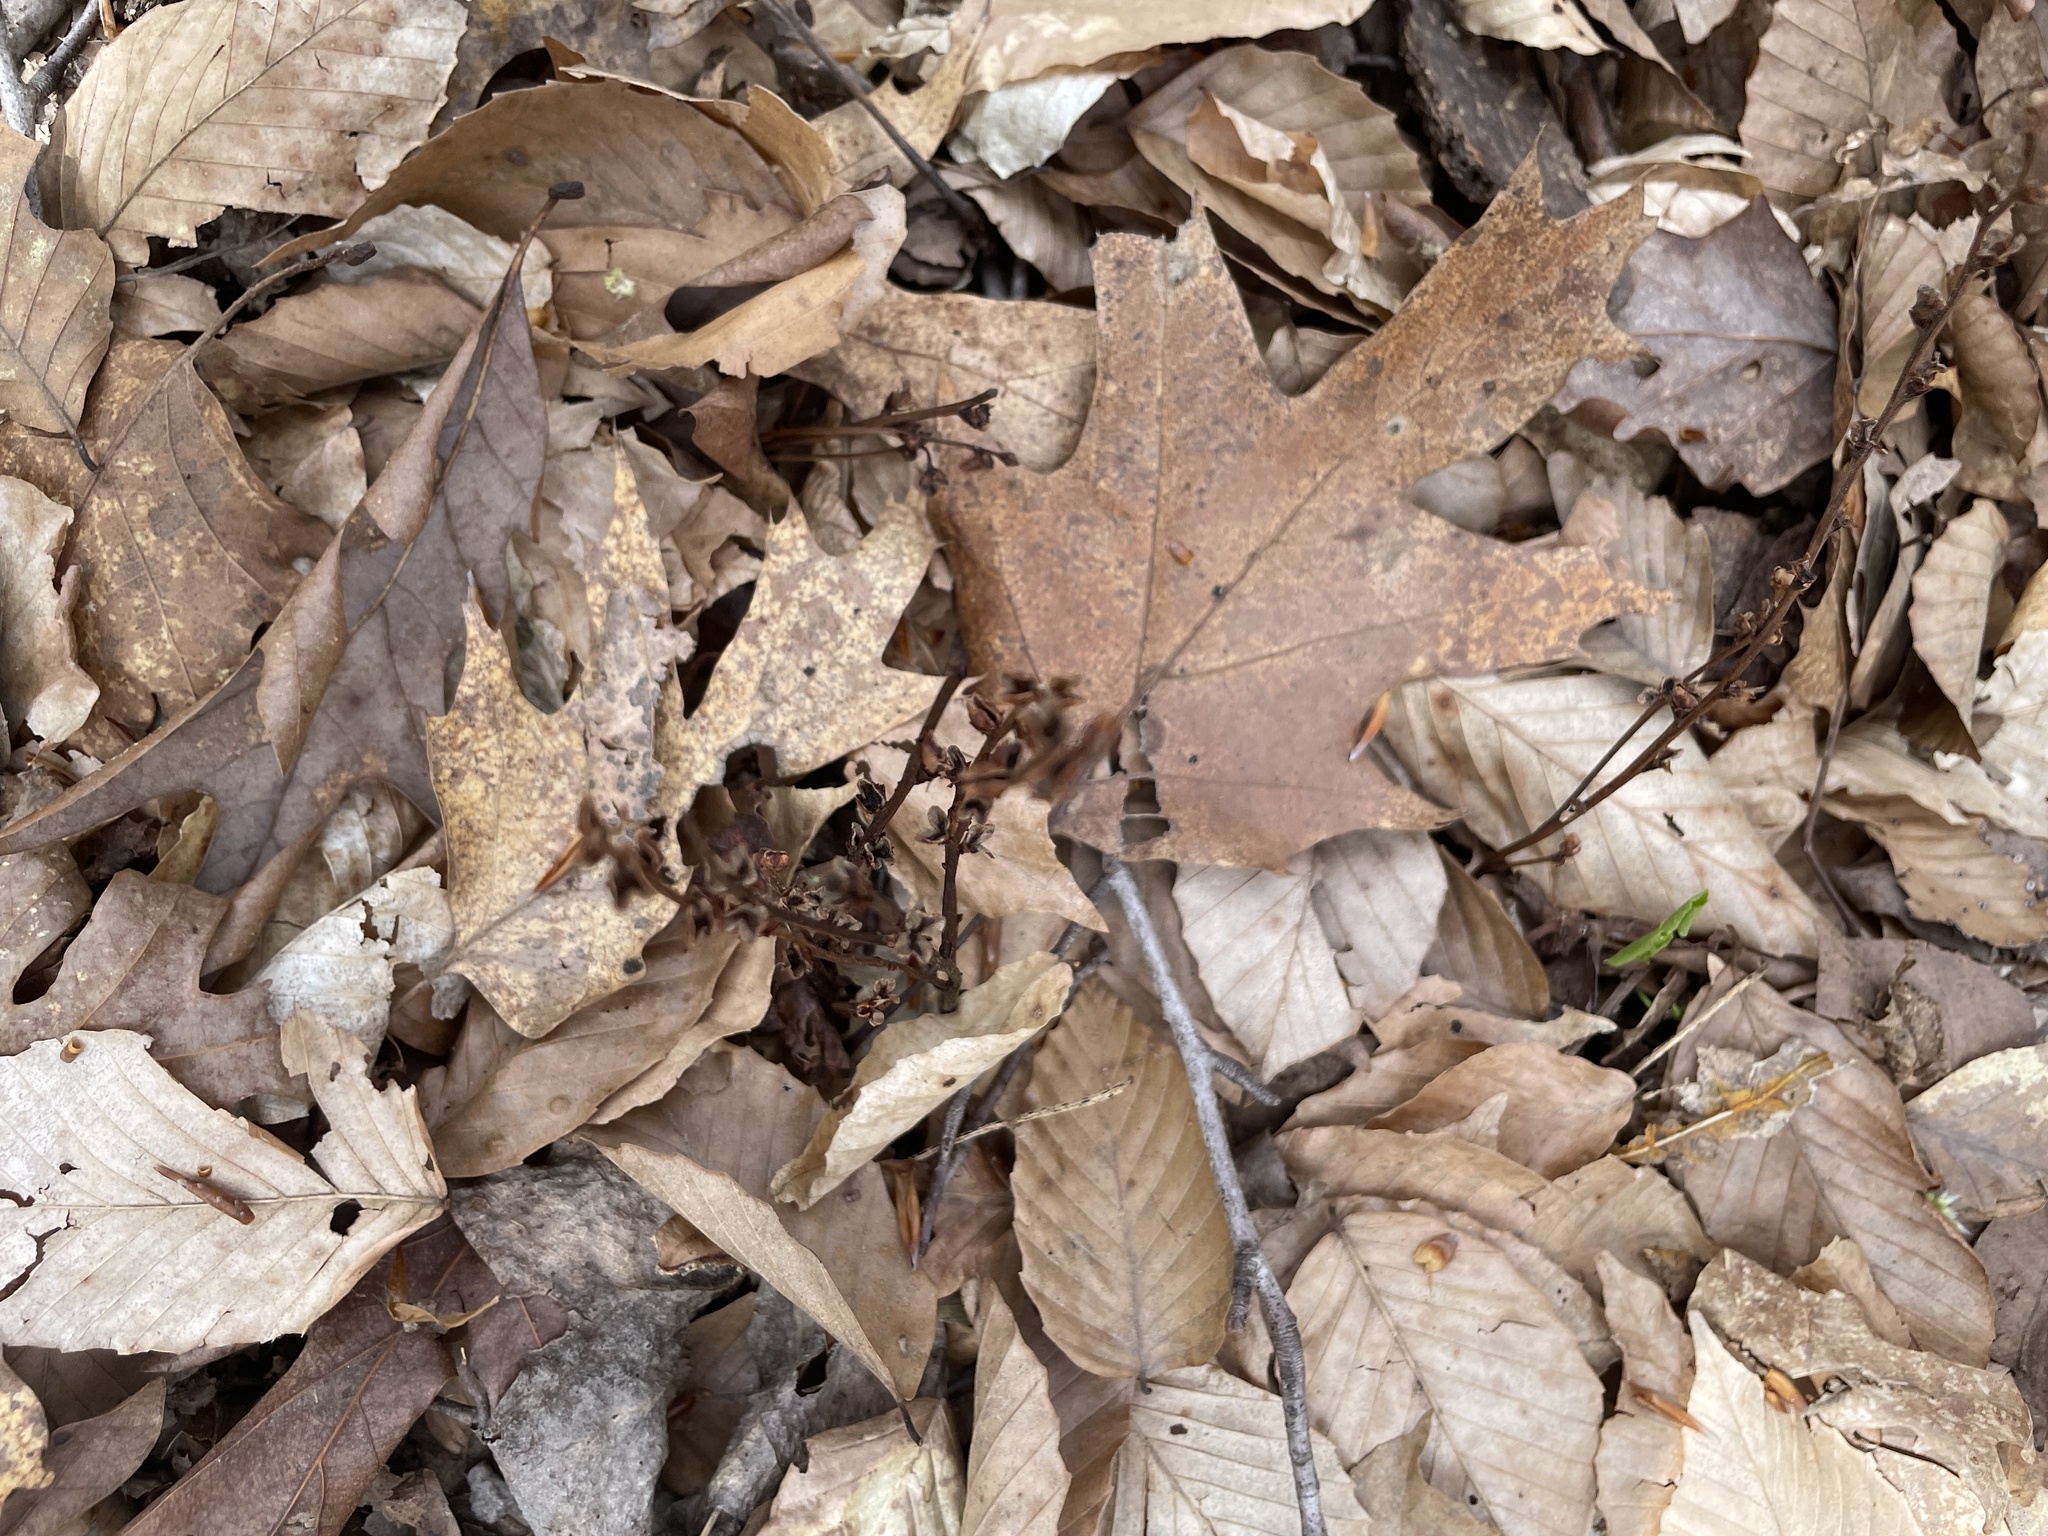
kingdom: Plantae
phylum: Tracheophyta
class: Magnoliopsida
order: Lamiales
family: Orobanchaceae
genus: Epifagus
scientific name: Epifagus virginiana
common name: Beechdrops
